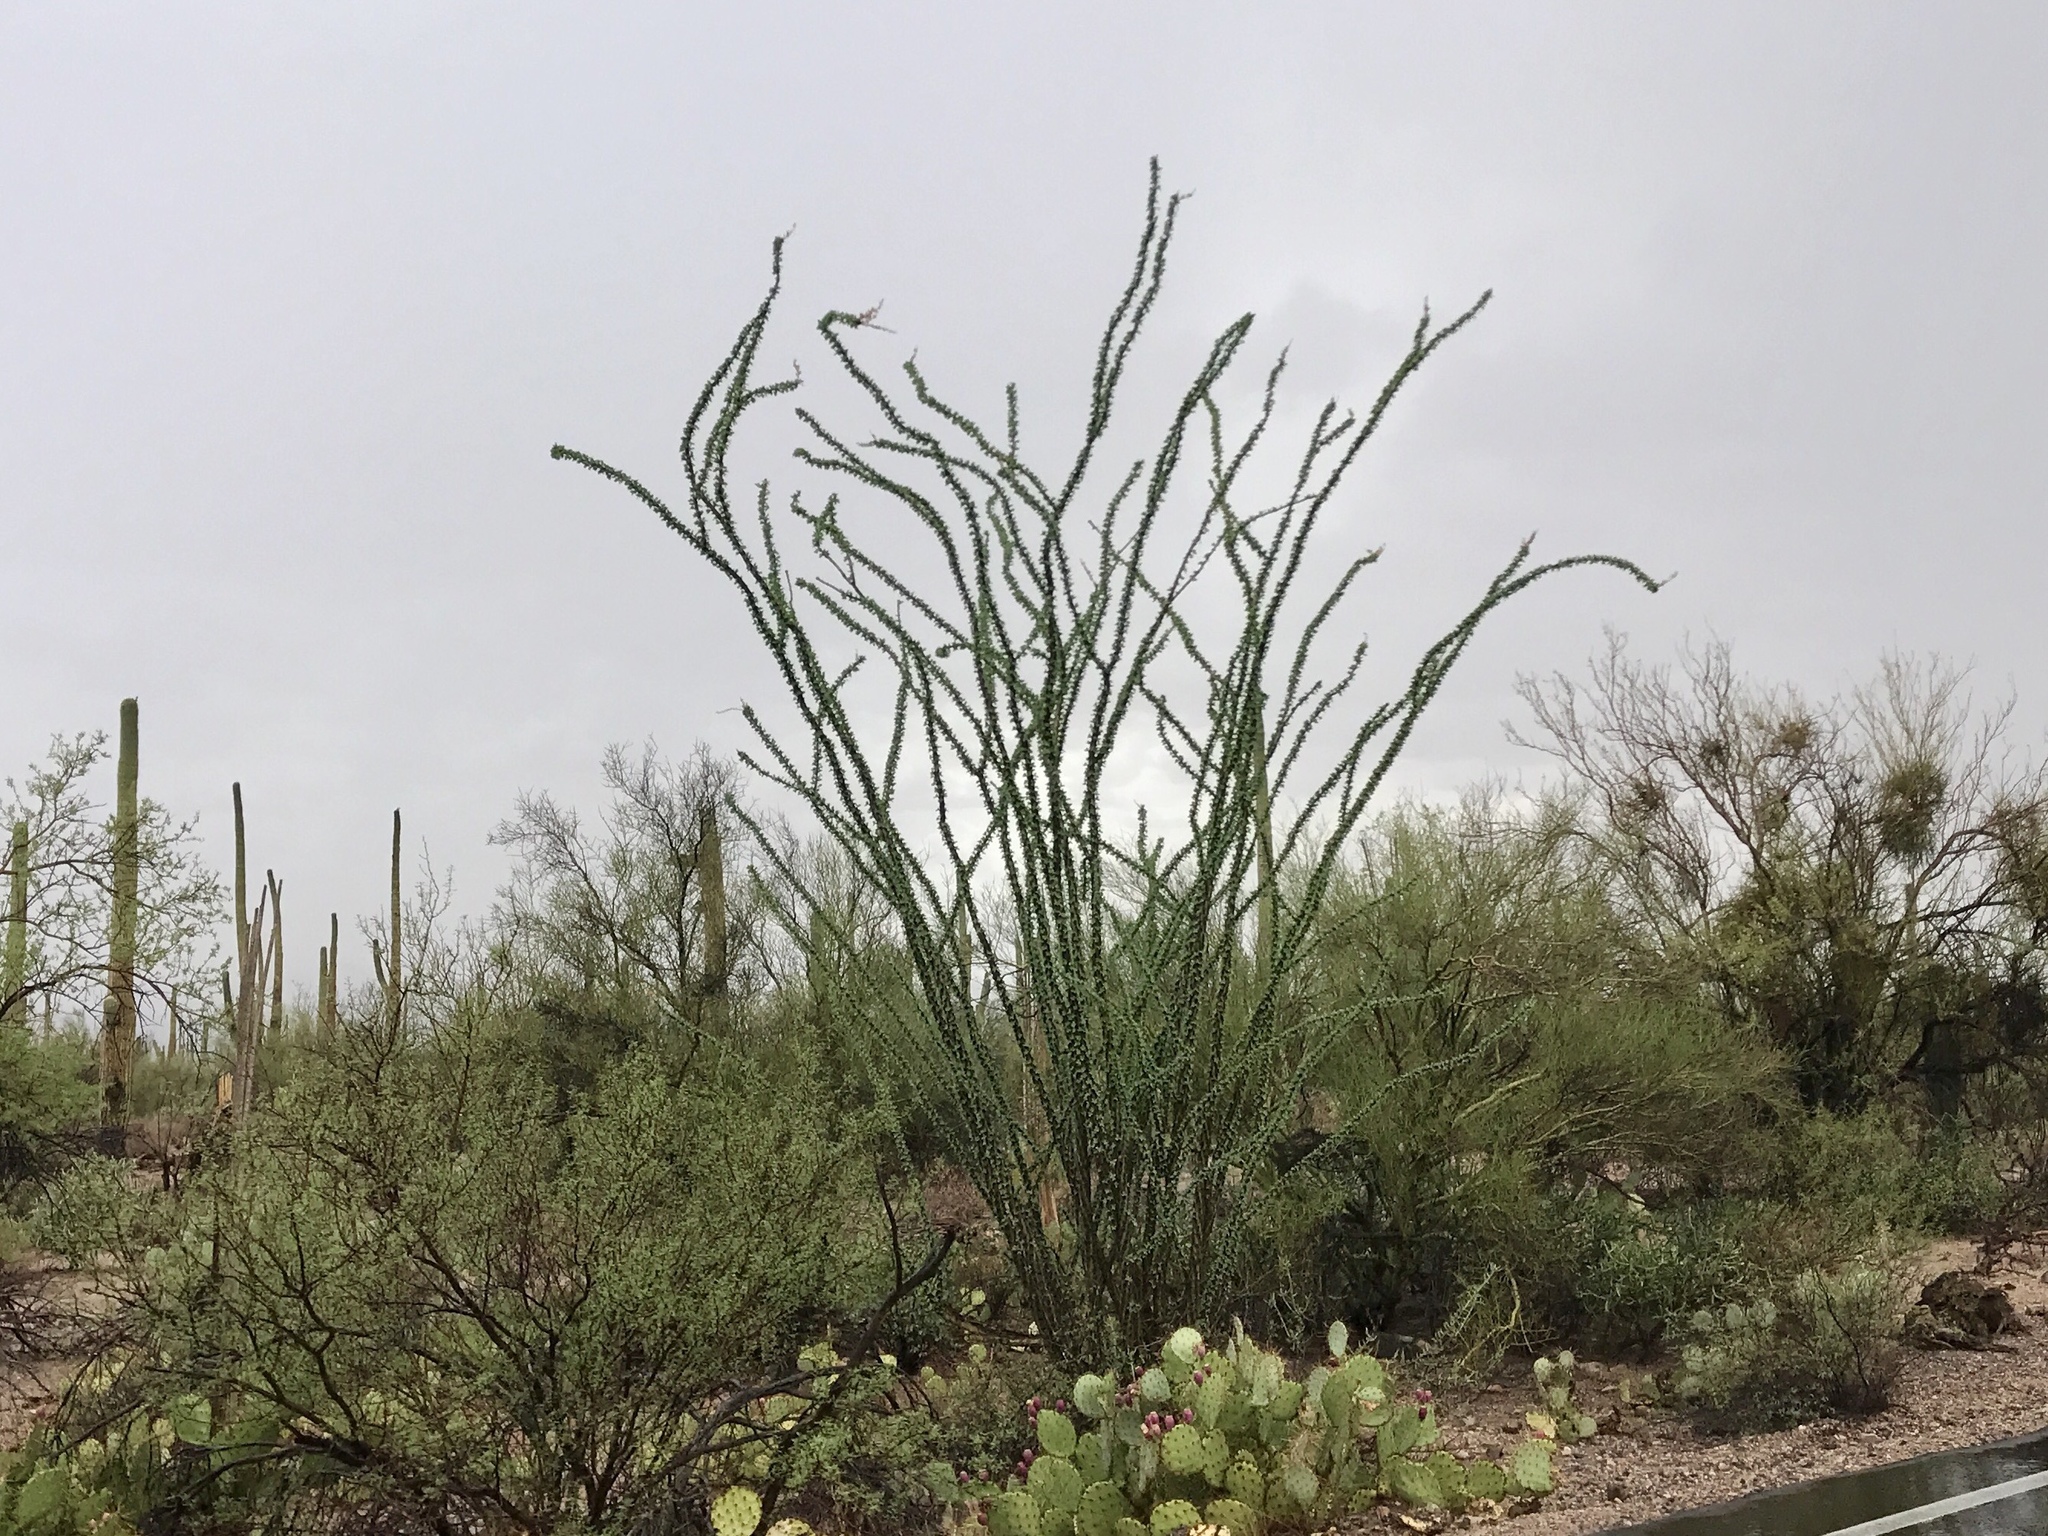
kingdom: Plantae
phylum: Tracheophyta
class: Magnoliopsida
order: Ericales
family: Fouquieriaceae
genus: Fouquieria
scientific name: Fouquieria splendens
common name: Vine-cactus
